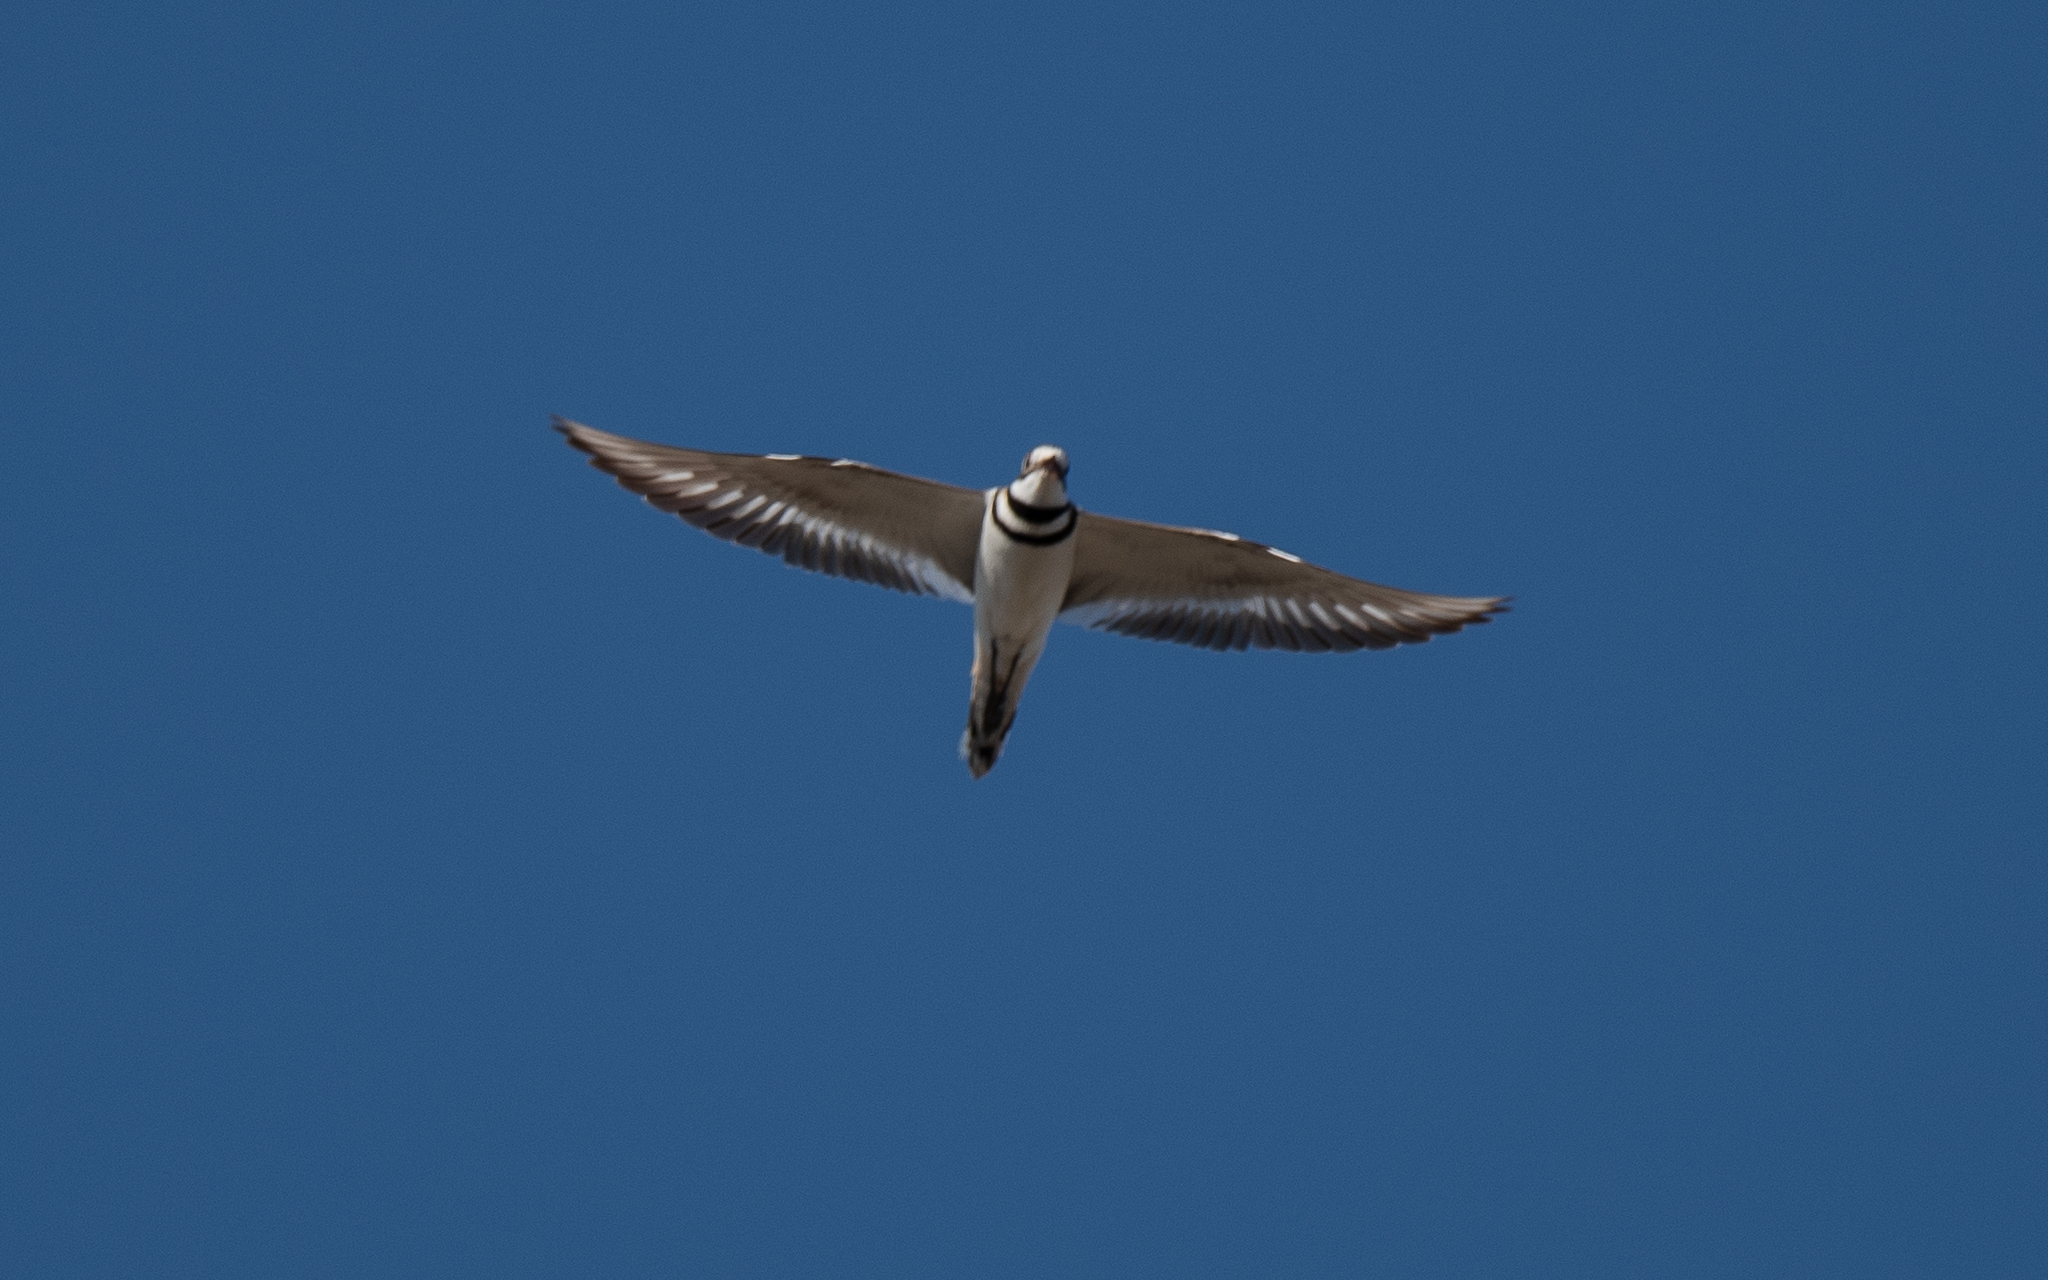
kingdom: Animalia
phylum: Chordata
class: Aves
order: Charadriiformes
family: Charadriidae
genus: Charadrius
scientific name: Charadrius vociferus
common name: Killdeer
